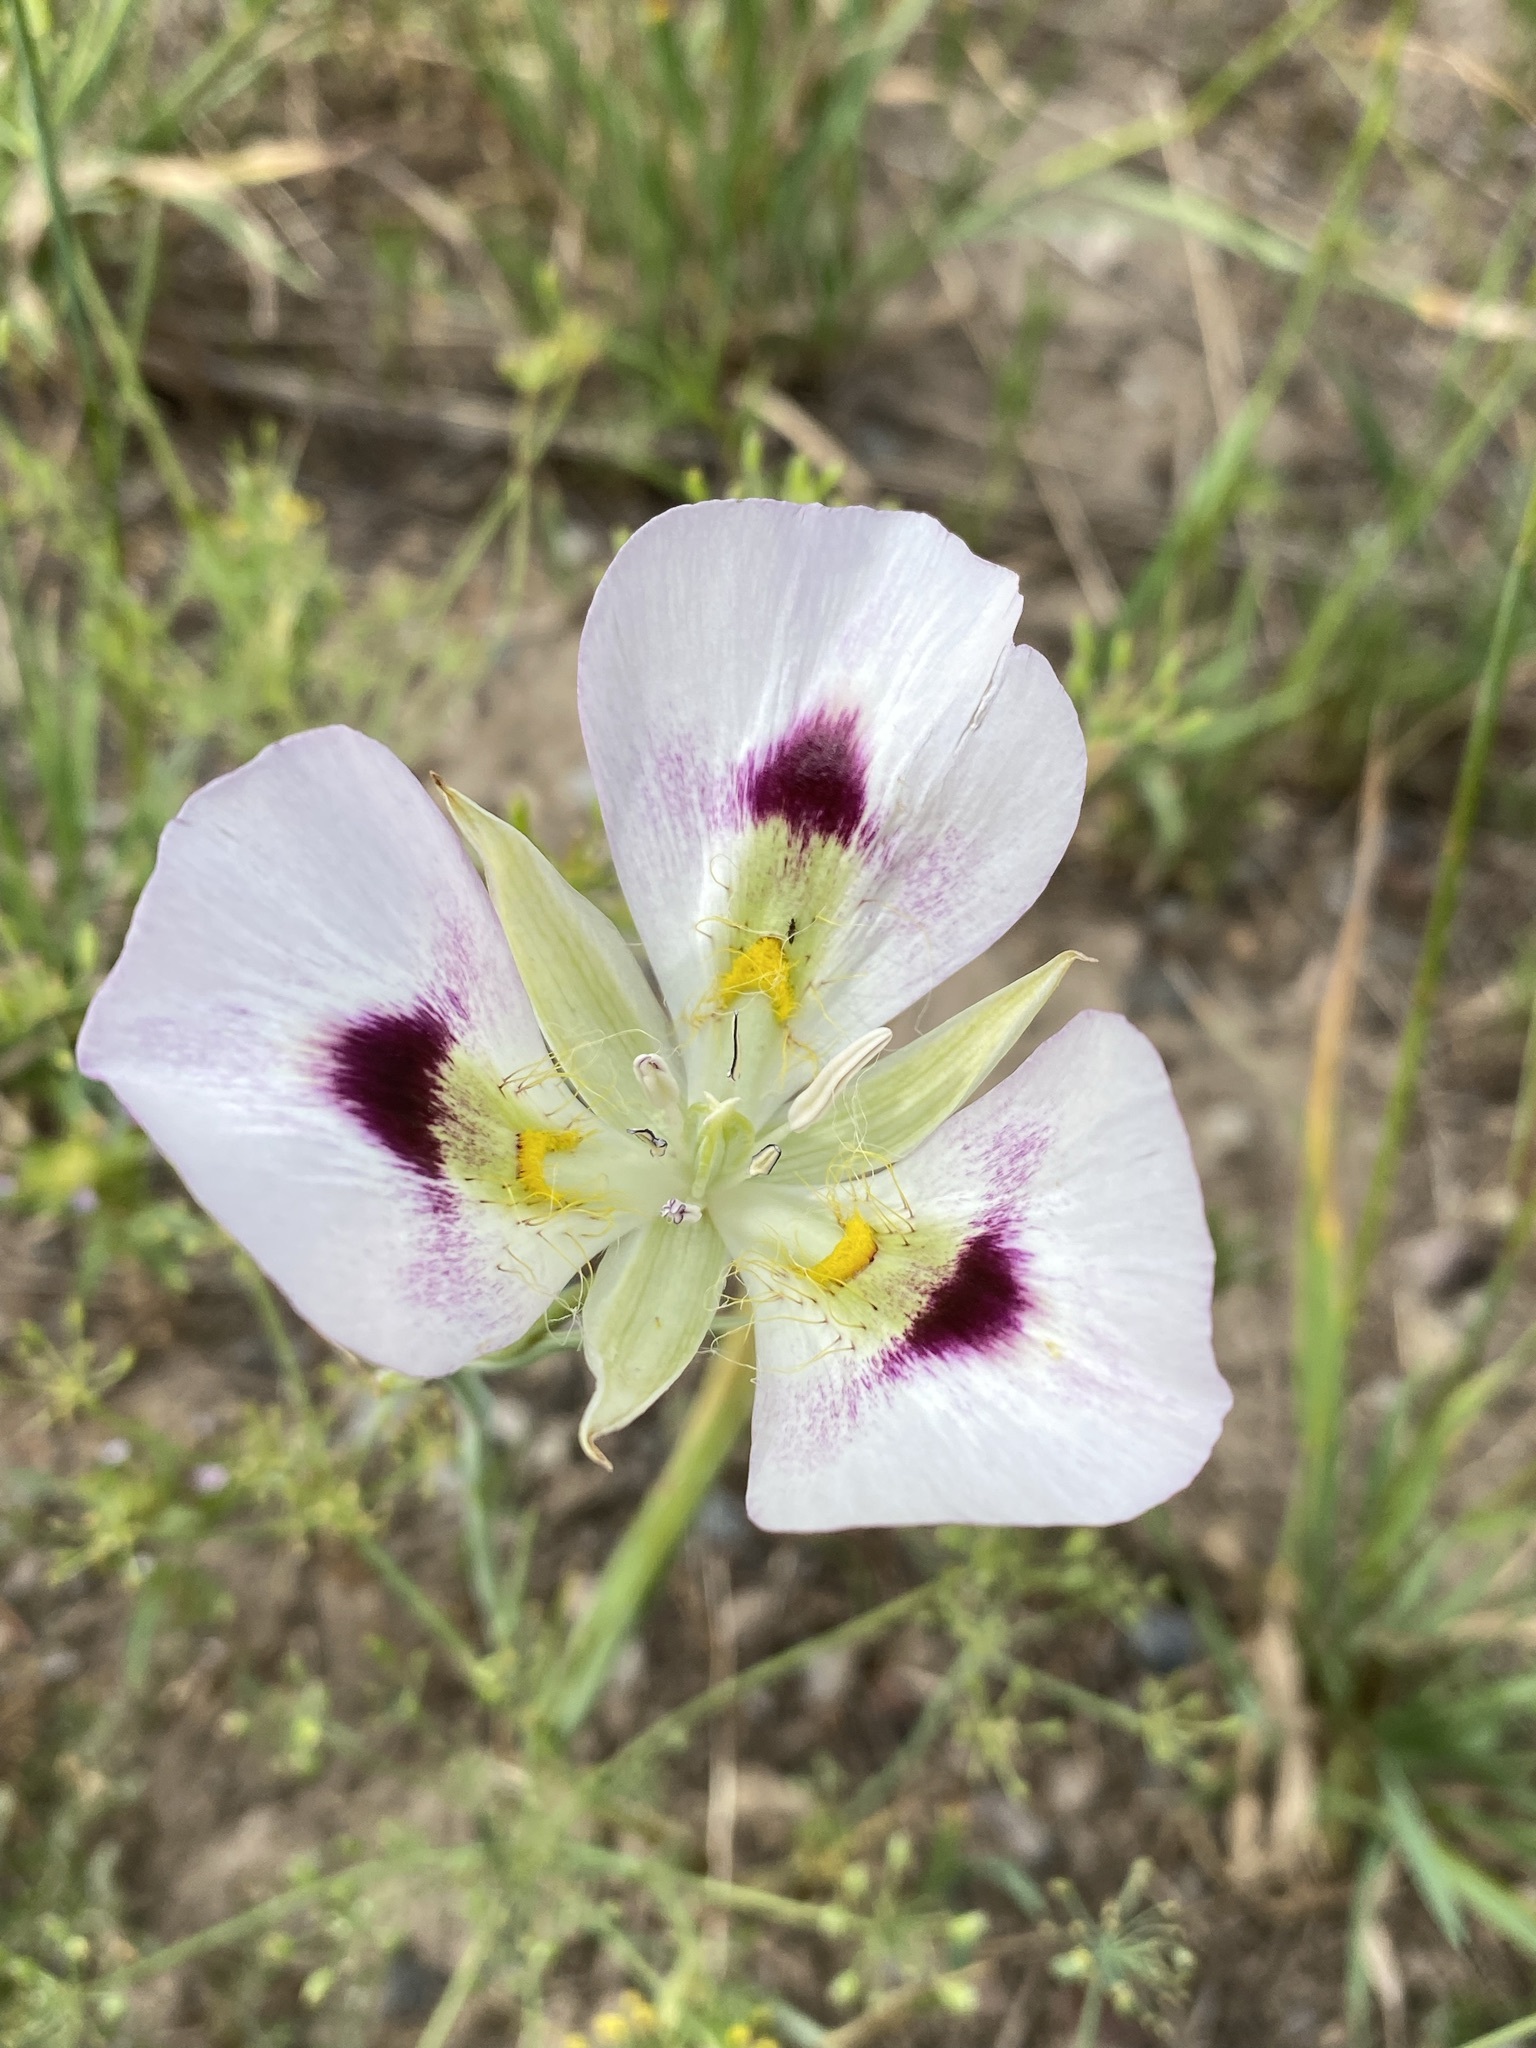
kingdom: Plantae
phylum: Tracheophyta
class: Liliopsida
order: Liliales
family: Liliaceae
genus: Calochortus
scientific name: Calochortus eurycarpus
